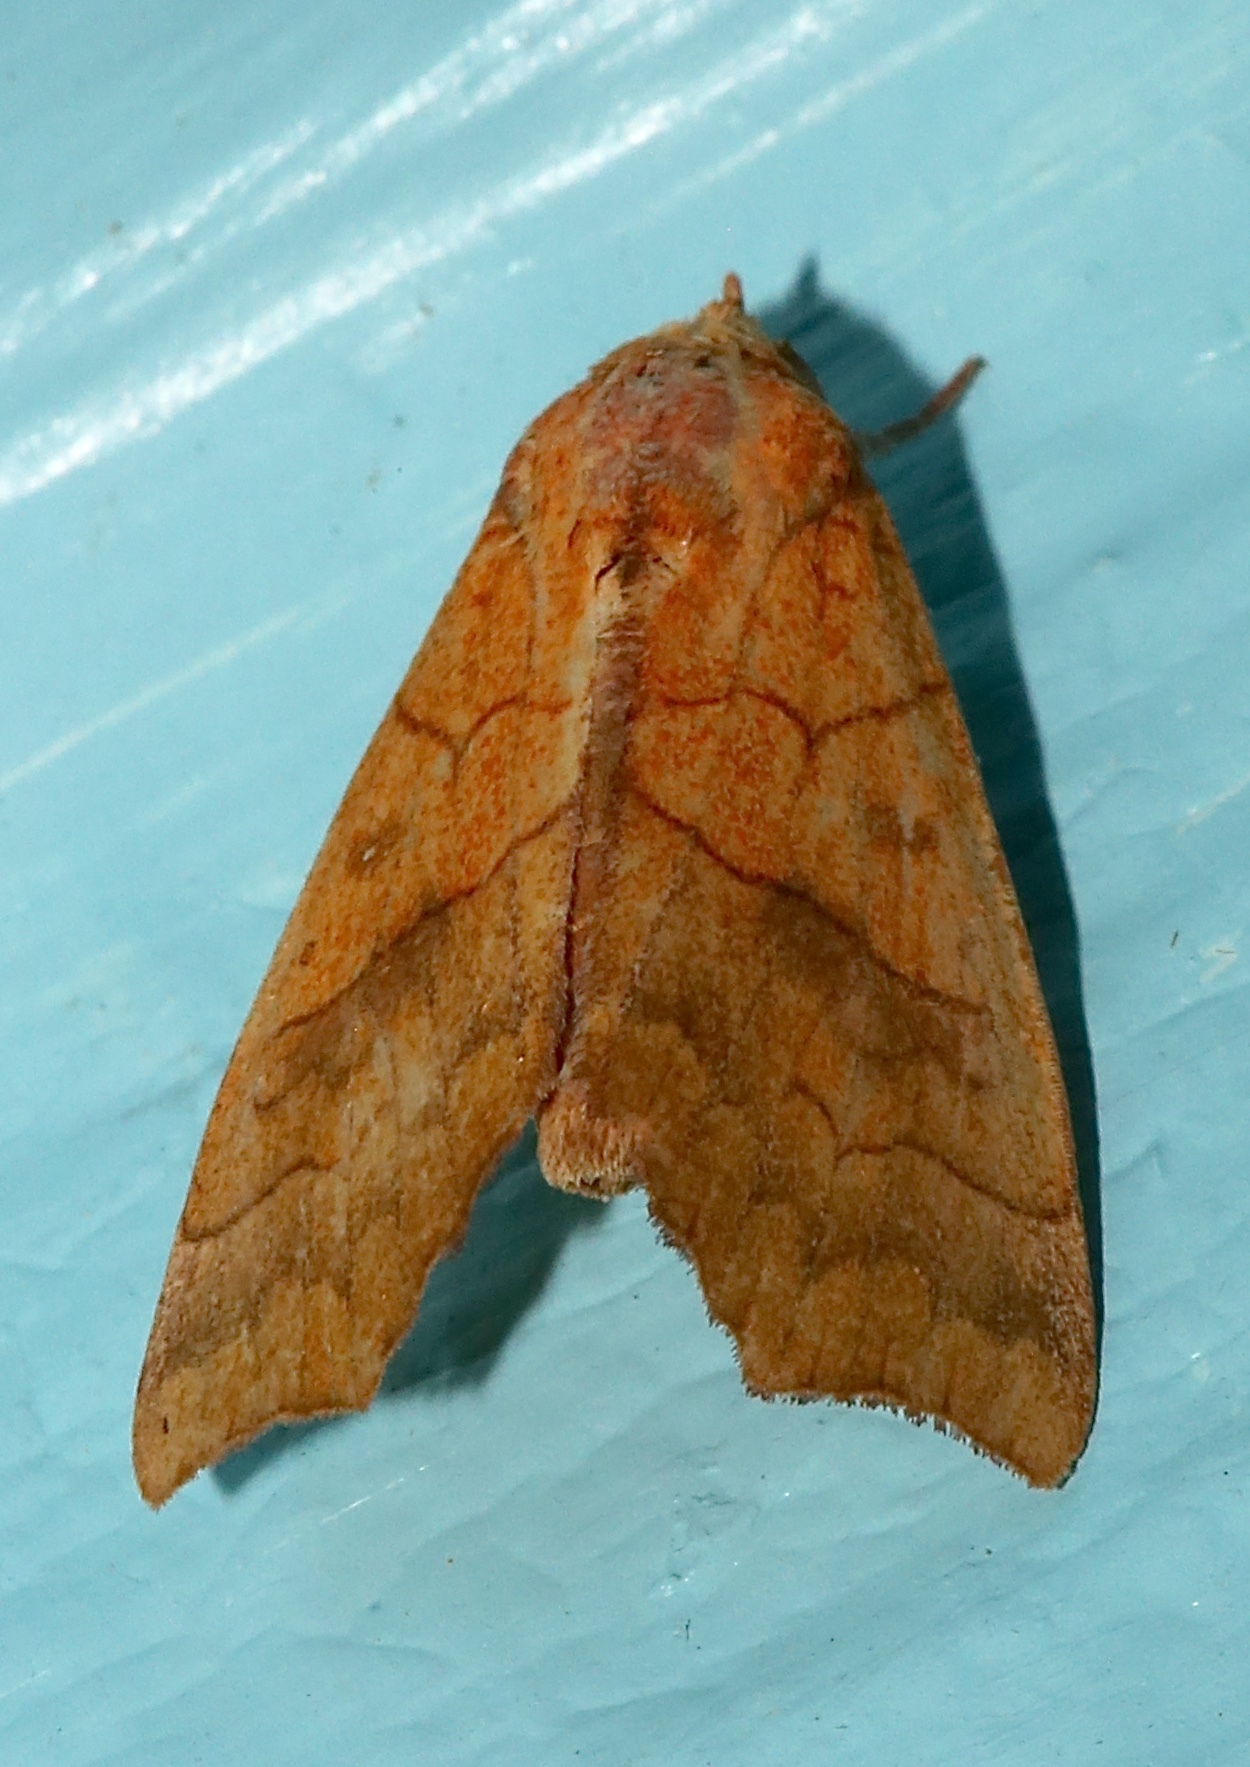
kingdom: Animalia
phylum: Arthropoda
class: Insecta
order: Lepidoptera
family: Erebidae
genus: Anomis
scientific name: Anomis erosa
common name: Yellow scallop moth
